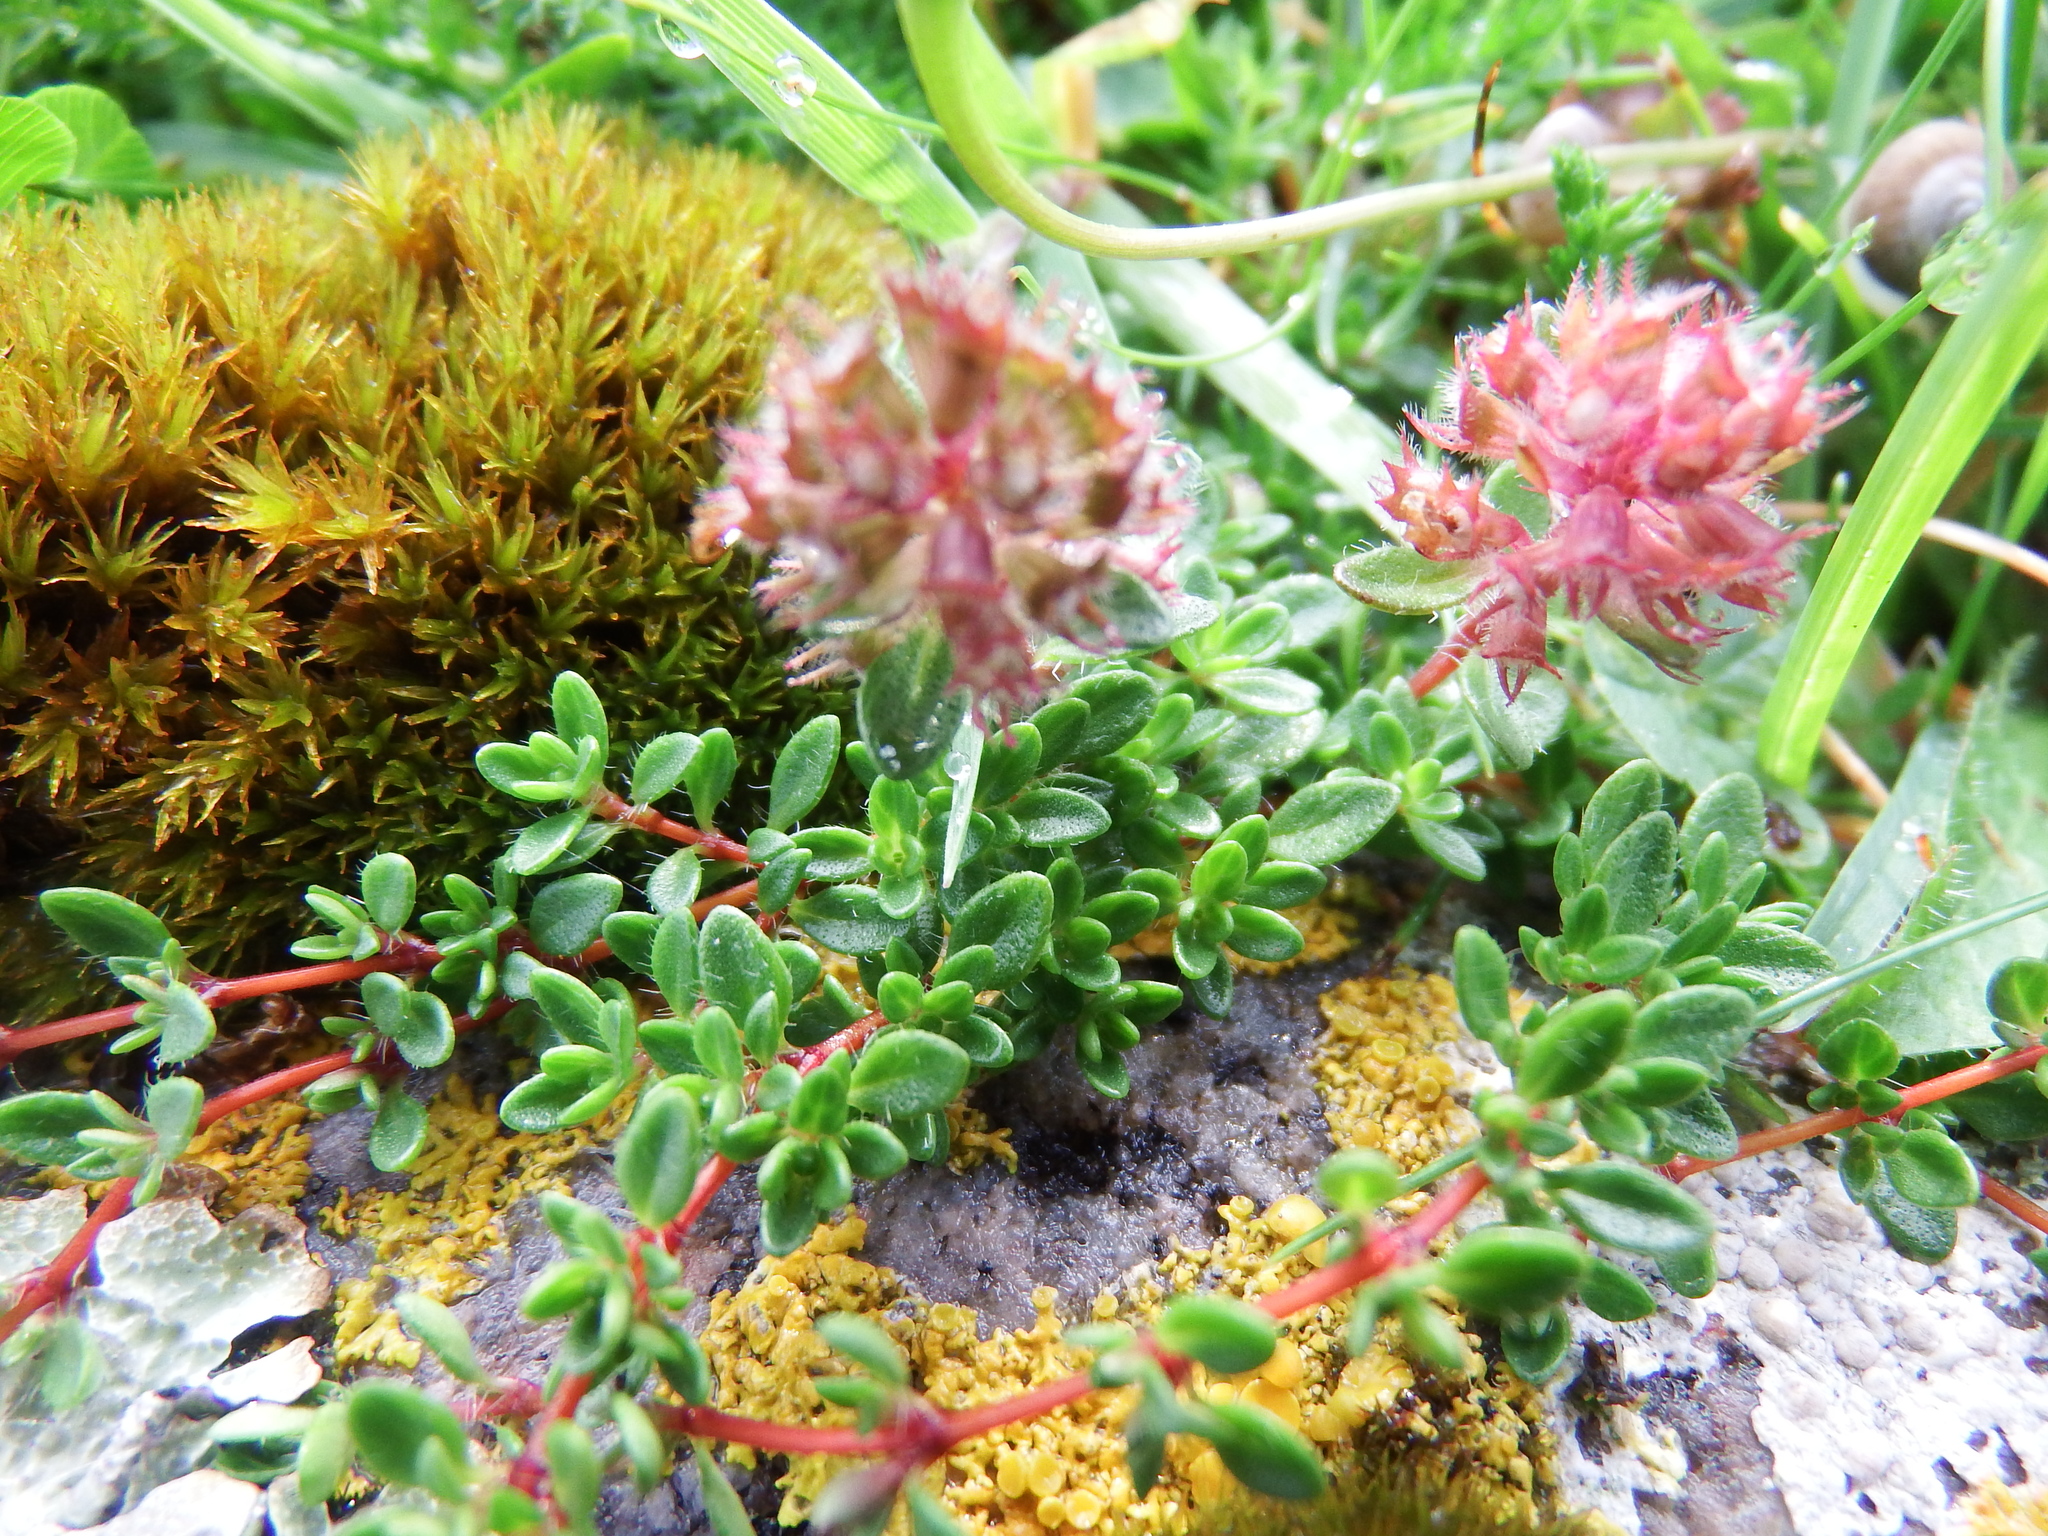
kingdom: Plantae
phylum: Tracheophyta
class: Magnoliopsida
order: Lamiales
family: Lamiaceae
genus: Thymus
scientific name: Thymus praecox
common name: Wild thyme
